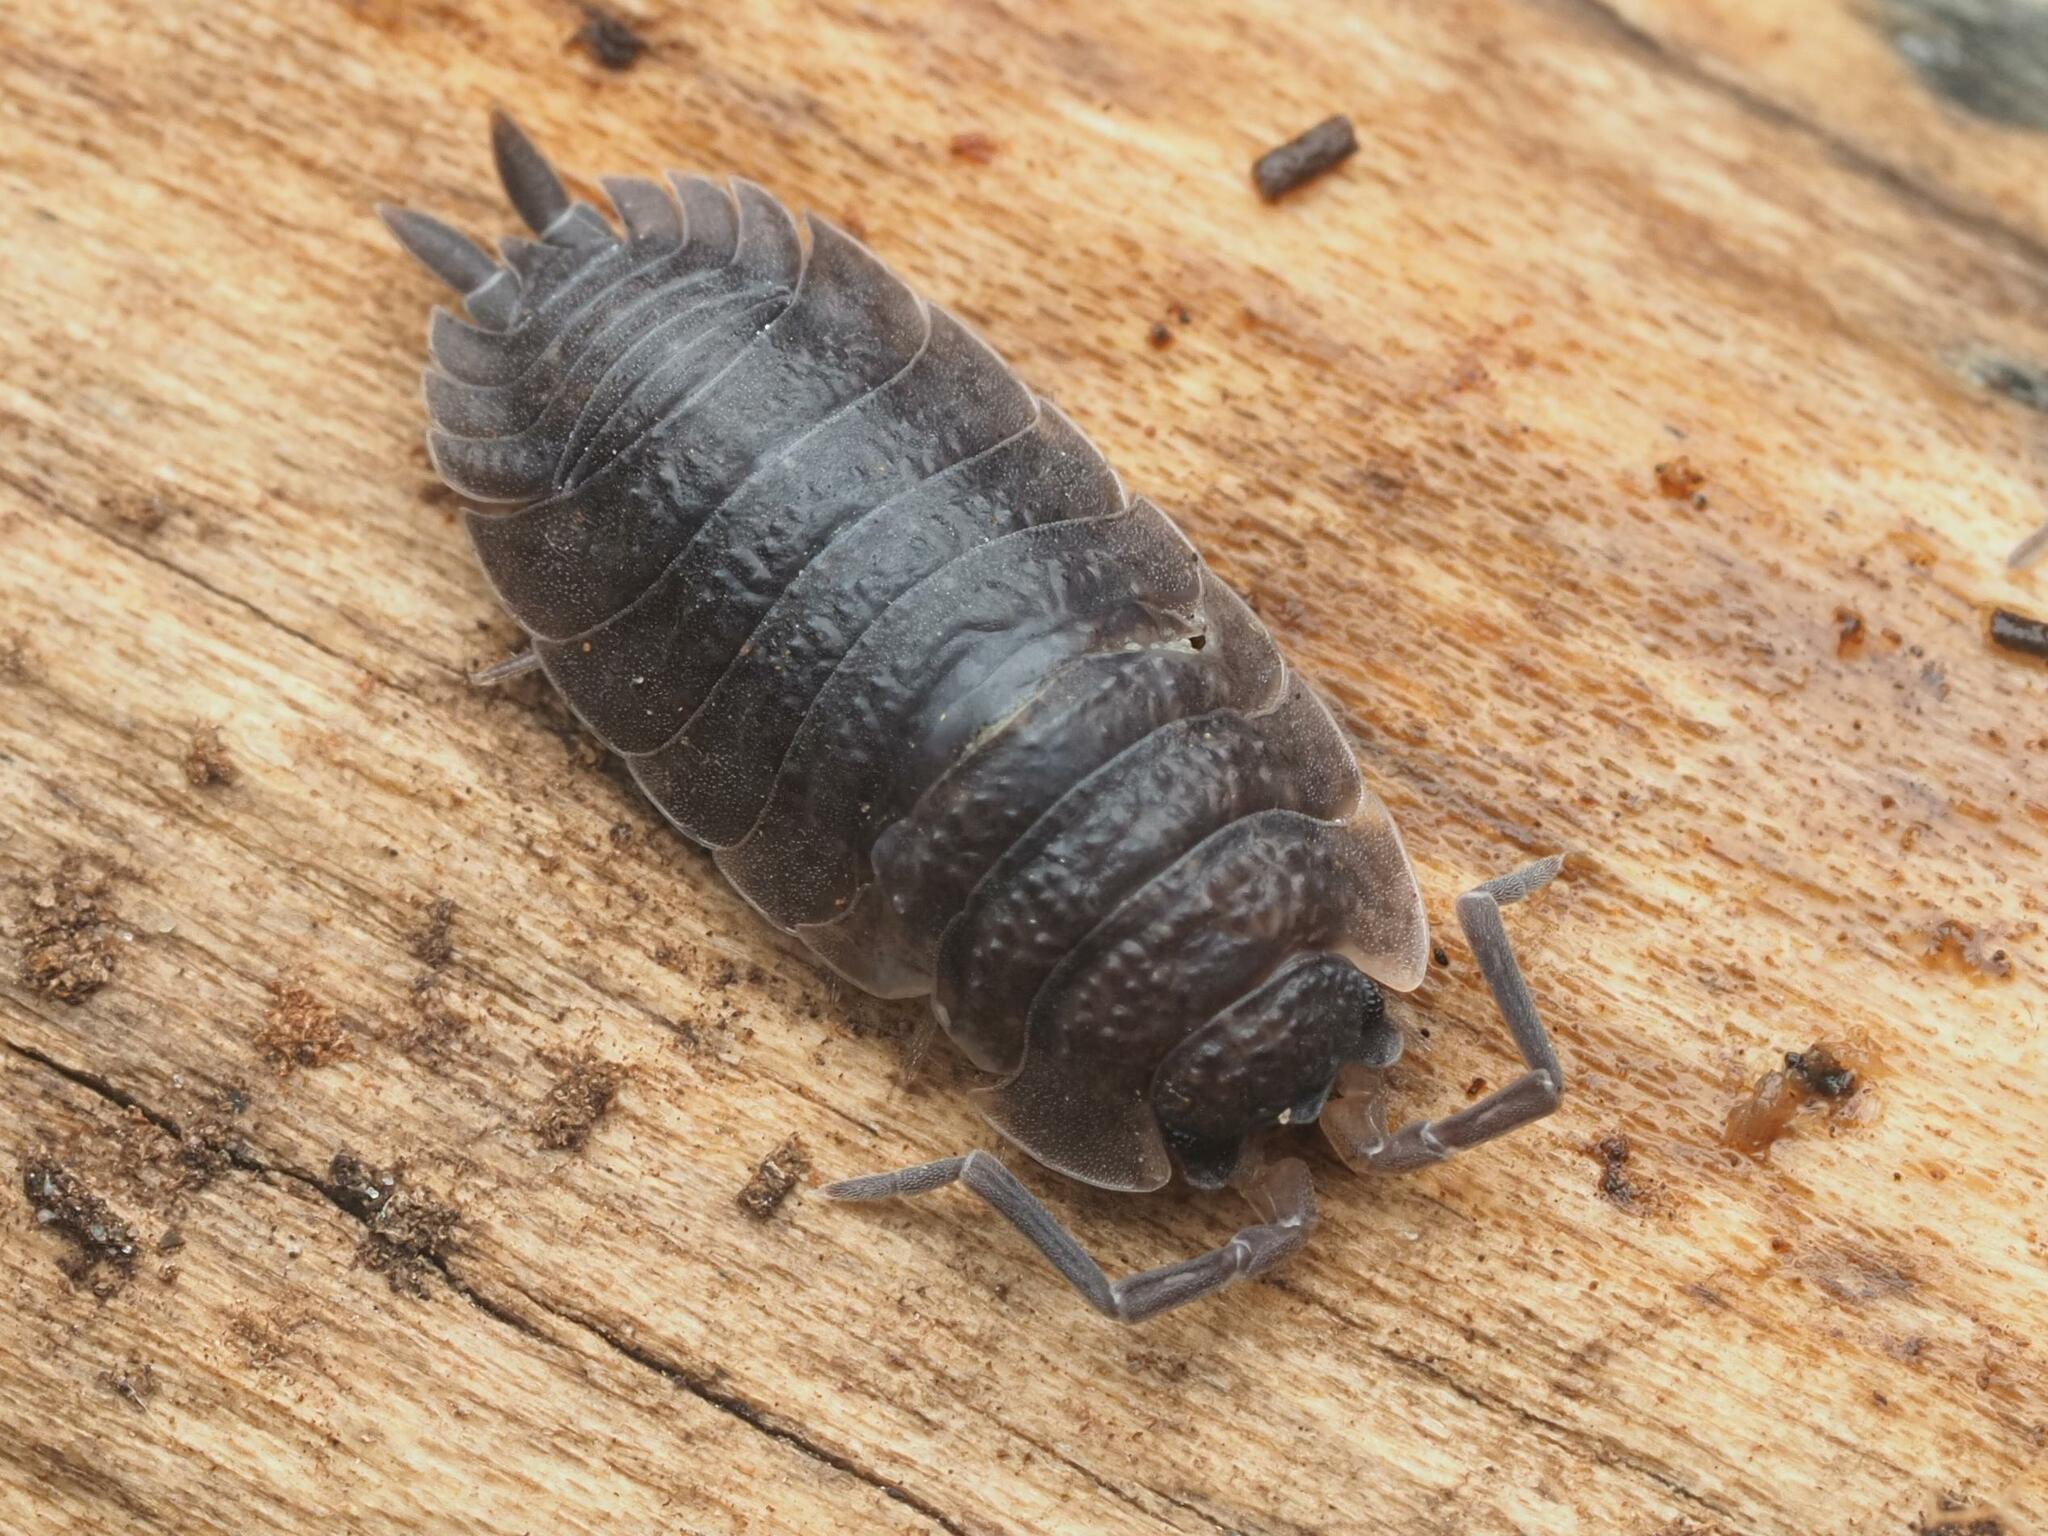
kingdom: Animalia
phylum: Arthropoda
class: Malacostraca
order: Isopoda
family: Porcellionidae
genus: Porcellio
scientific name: Porcellio scaber
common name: Common rough woodlouse
